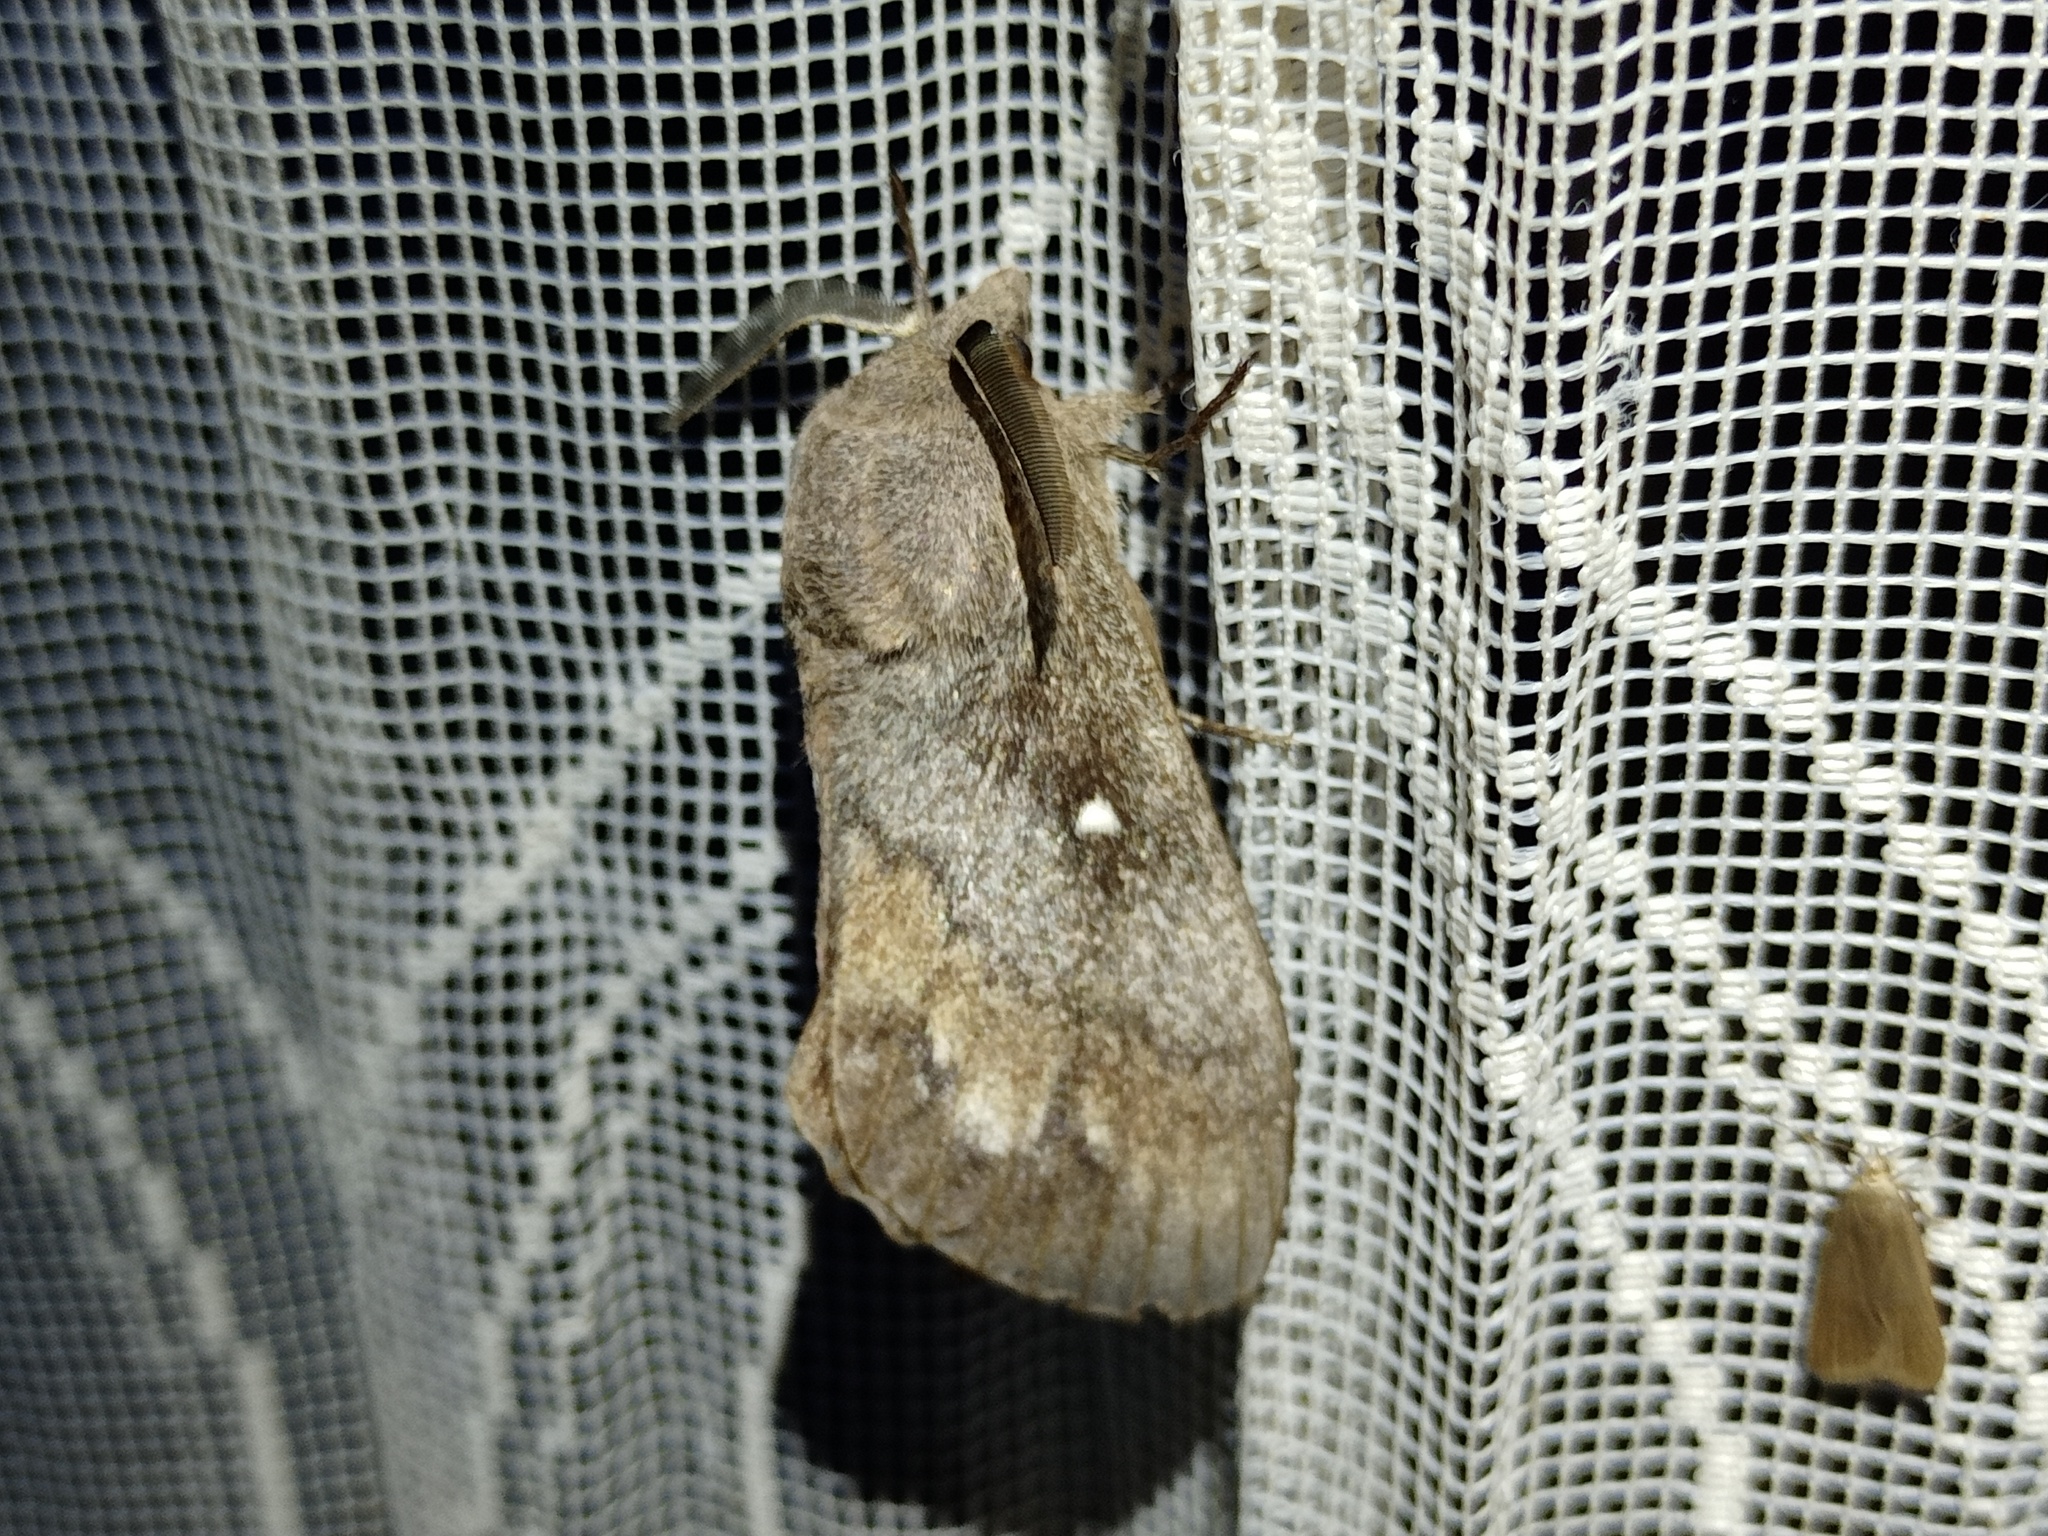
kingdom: Animalia
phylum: Arthropoda
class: Insecta
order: Lepidoptera
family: Lasiocampidae
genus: Dendrolimus
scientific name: Dendrolimus pini
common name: Pine-tree lappet
